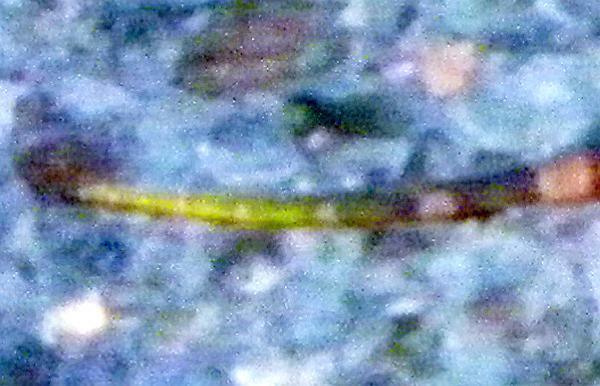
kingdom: Animalia
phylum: Chordata
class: Squamata
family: Viperidae
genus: Agkistrodon
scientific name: Agkistrodon contortrix
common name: Northern copperhead
